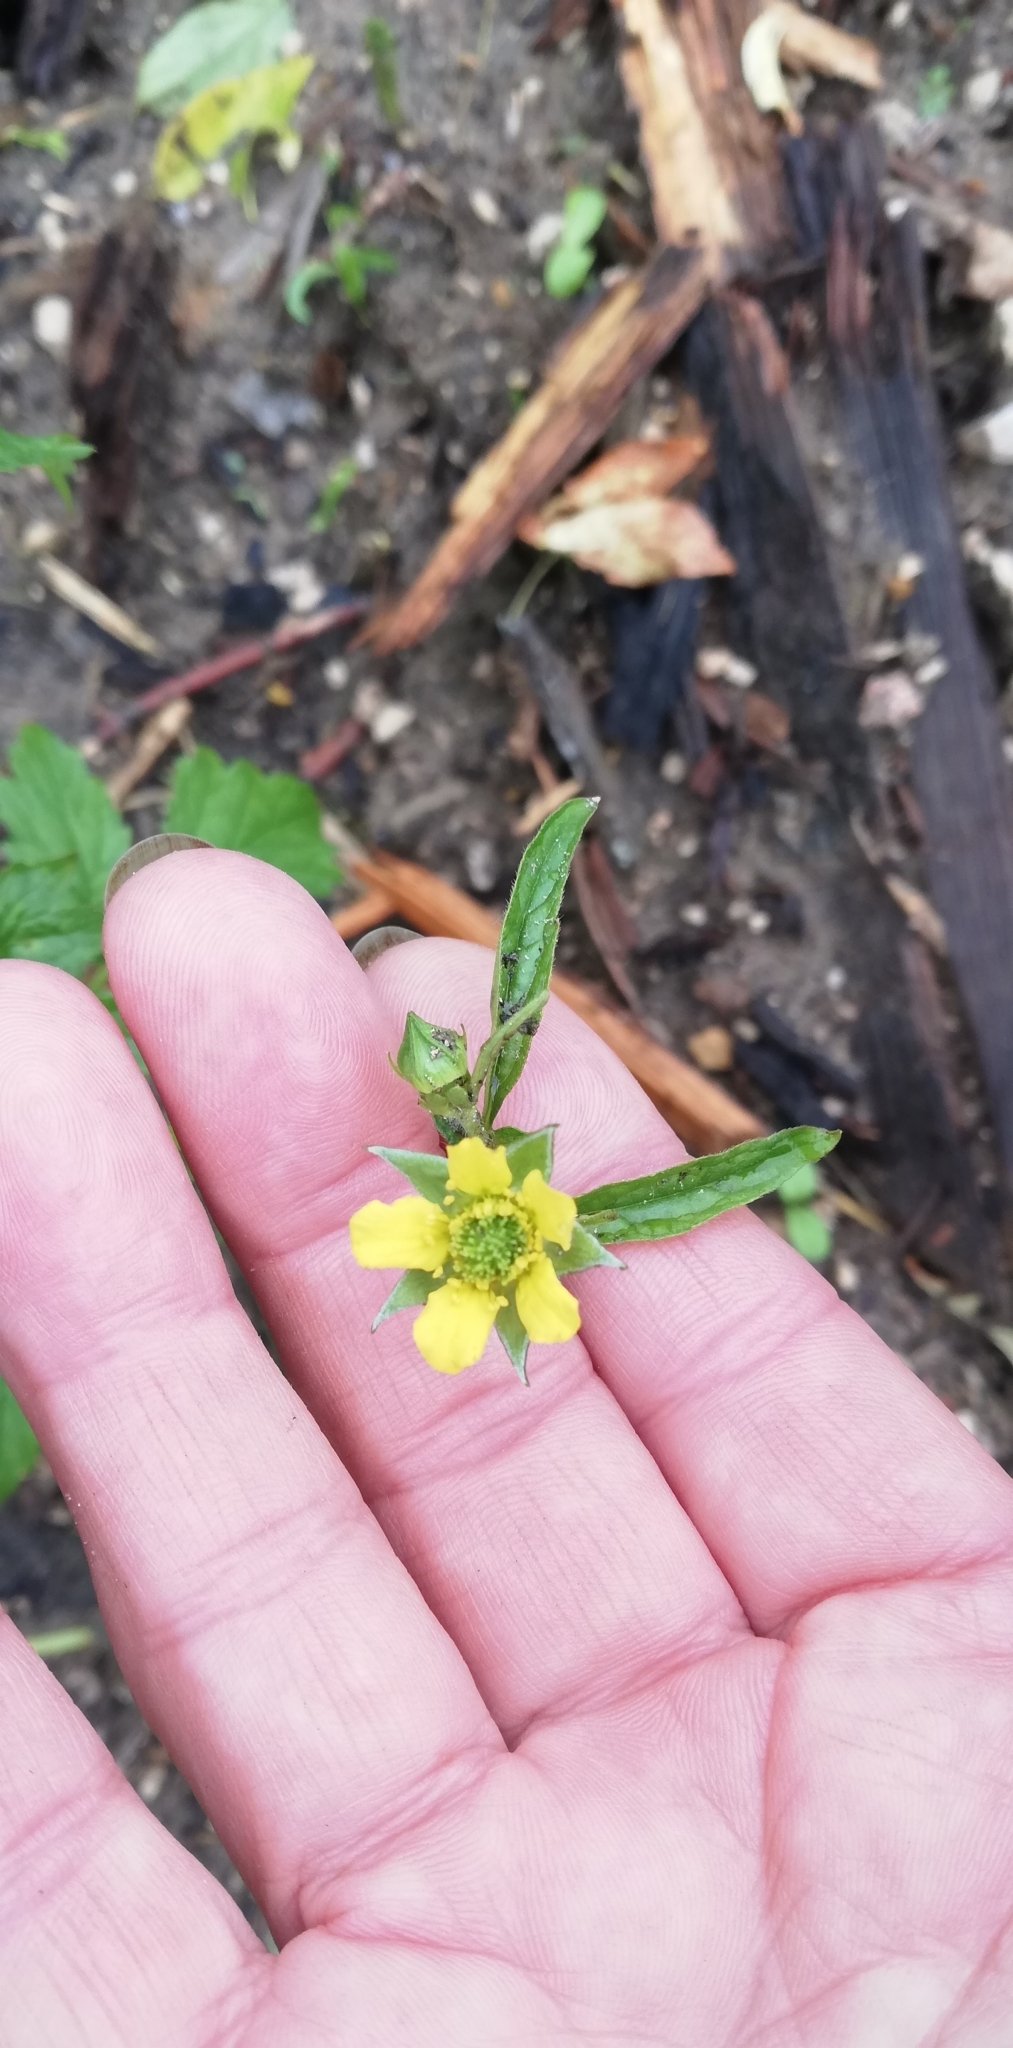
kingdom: Plantae
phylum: Tracheophyta
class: Magnoliopsida
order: Rosales
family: Rosaceae
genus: Geum
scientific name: Geum urbanum
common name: Wood avens
